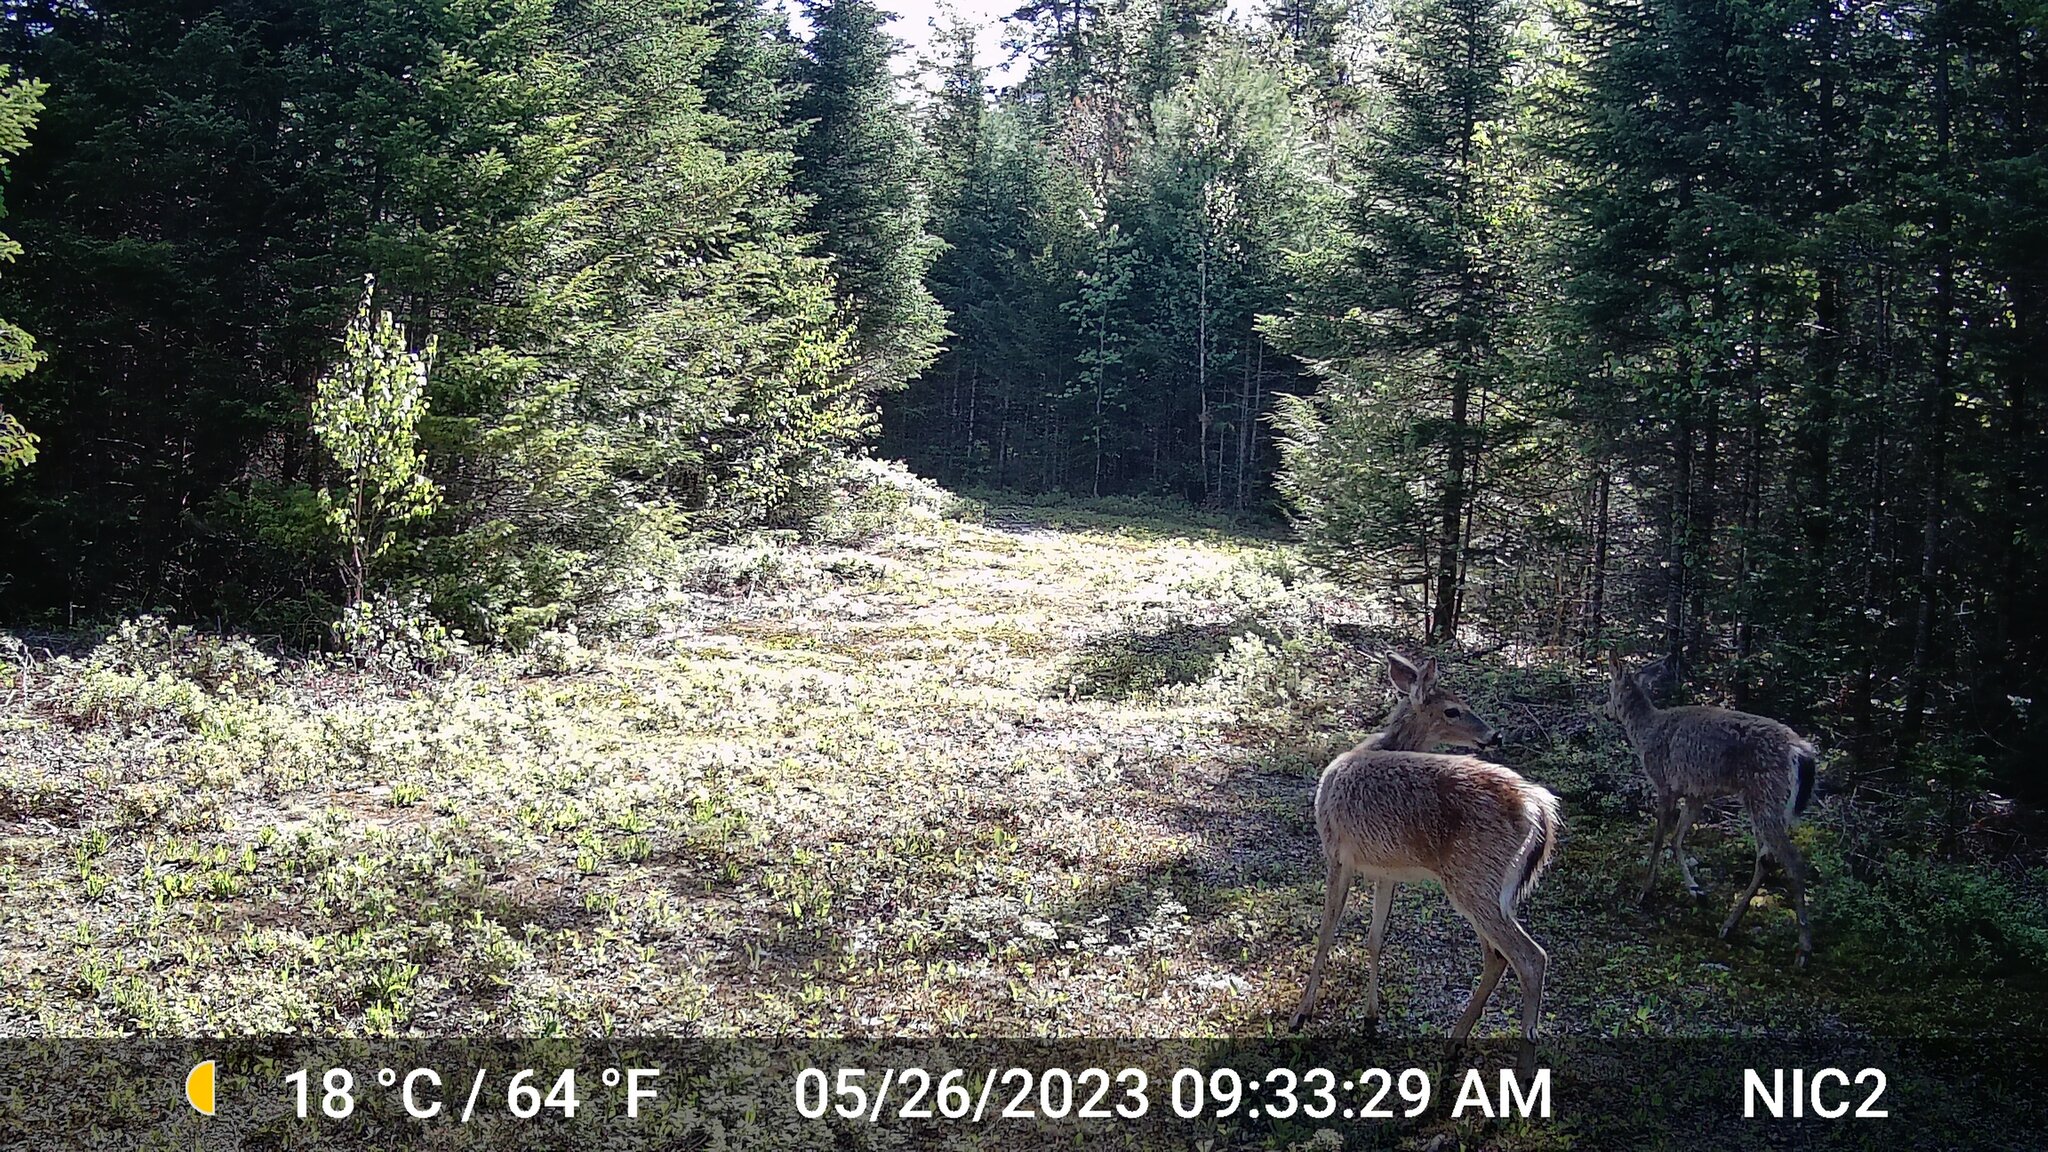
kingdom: Animalia
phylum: Chordata
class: Mammalia
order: Artiodactyla
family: Cervidae
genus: Odocoileus
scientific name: Odocoileus virginianus
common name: White-tailed deer
